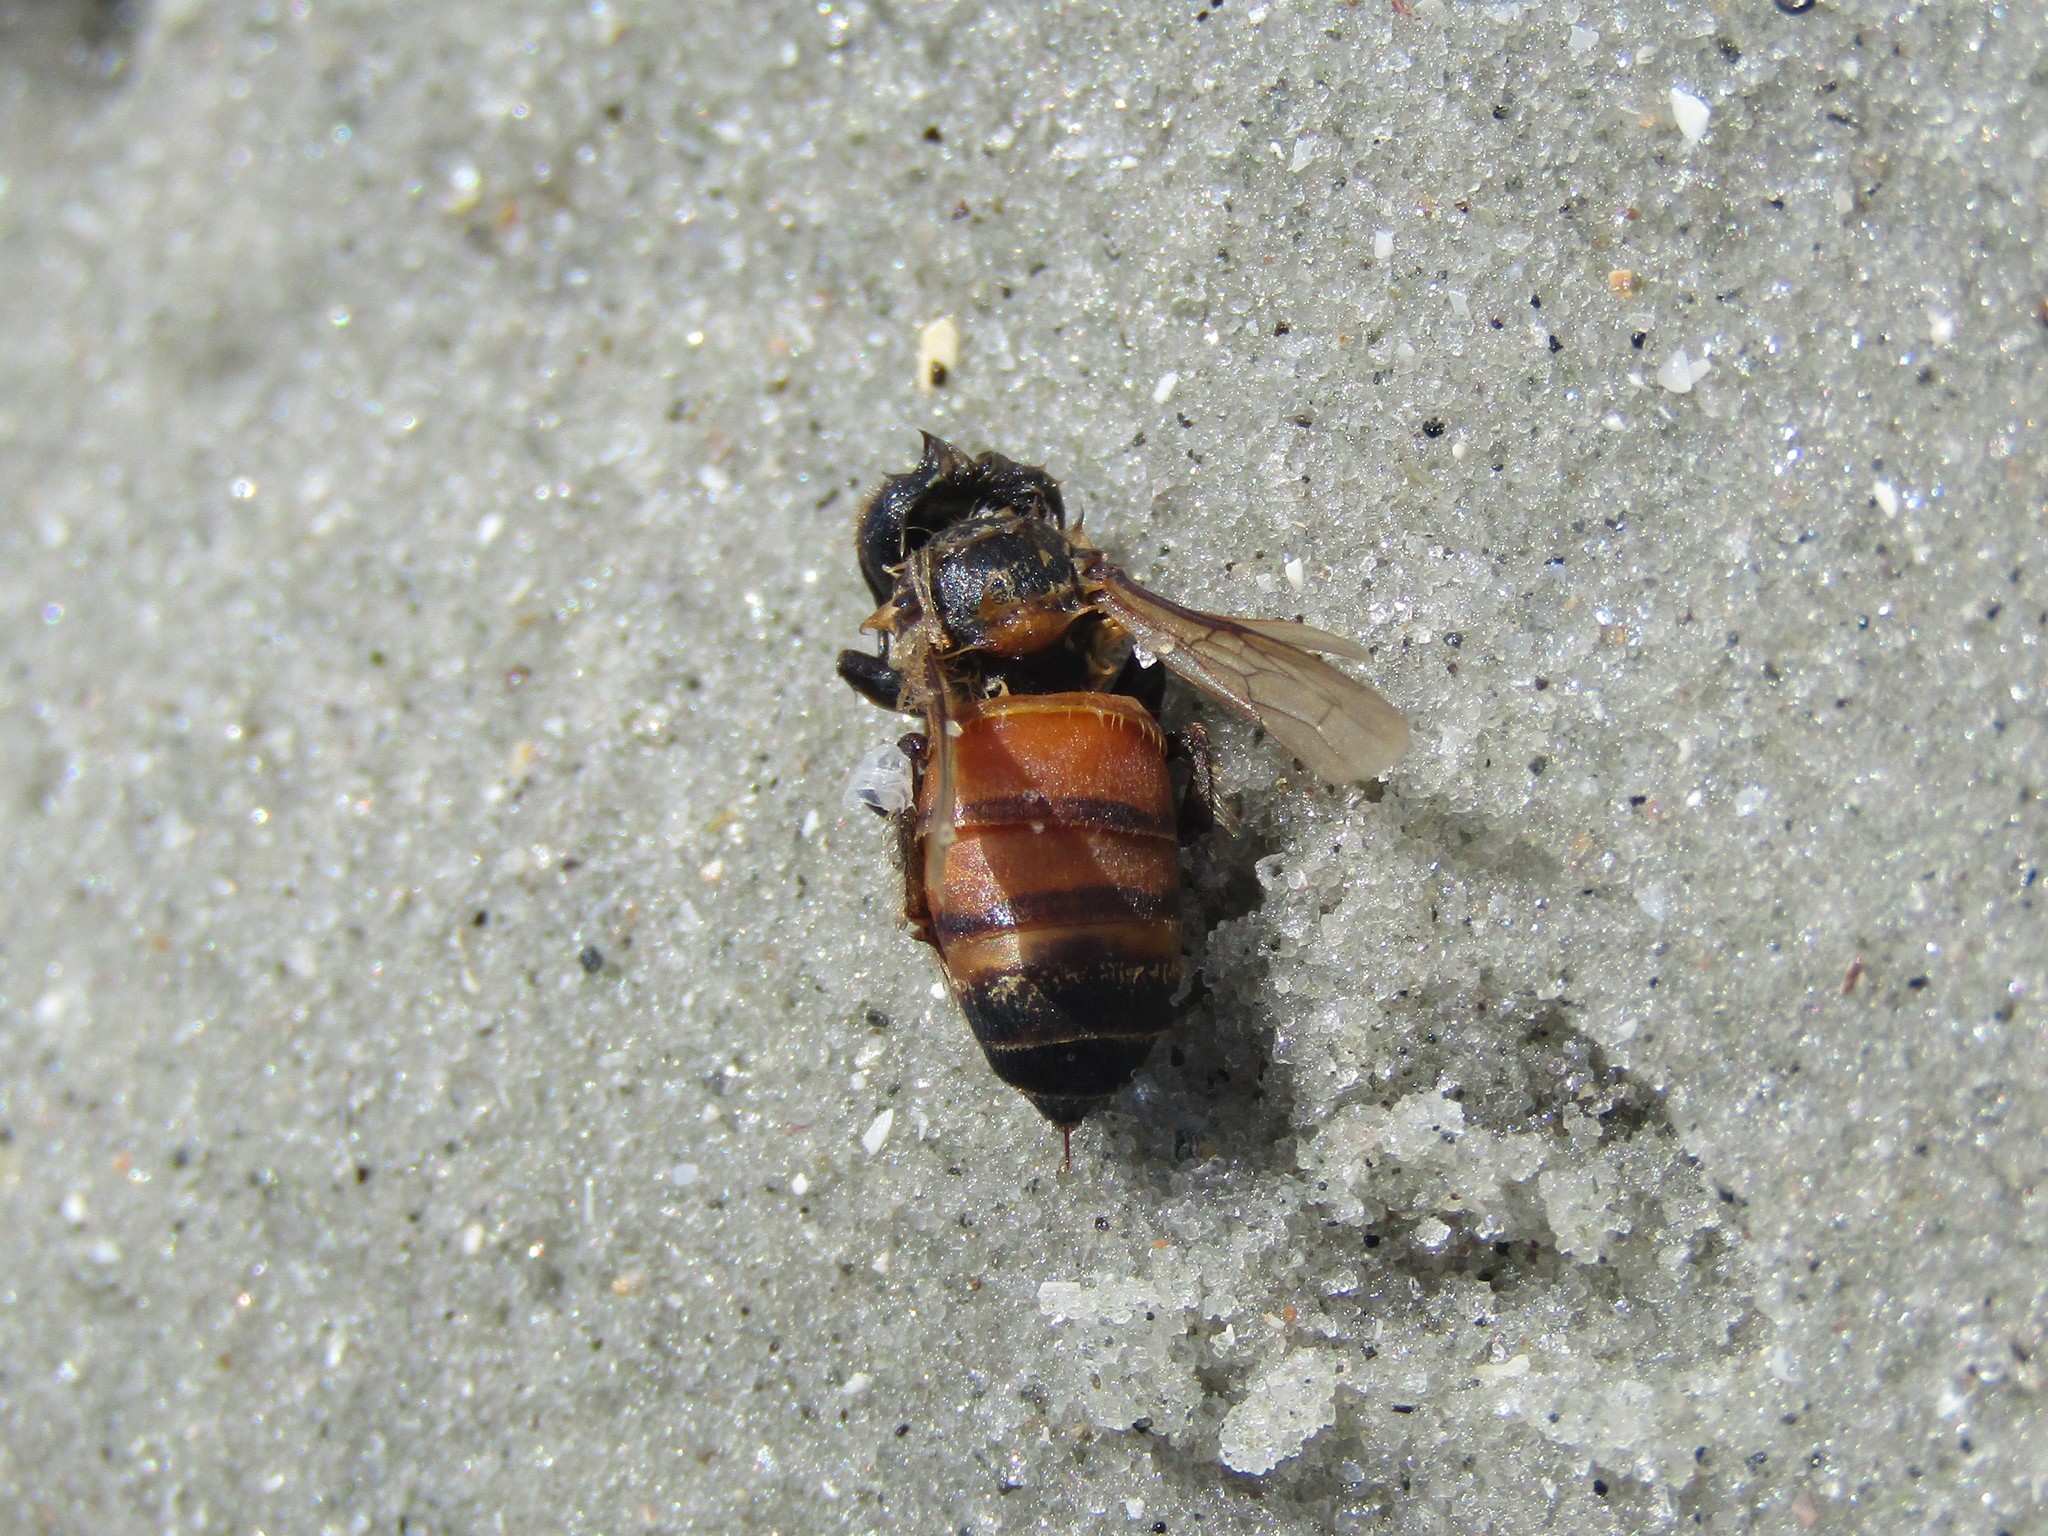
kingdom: Animalia
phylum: Arthropoda
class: Insecta
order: Hymenoptera
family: Apidae
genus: Apis
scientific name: Apis mellifera
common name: Honey bee
